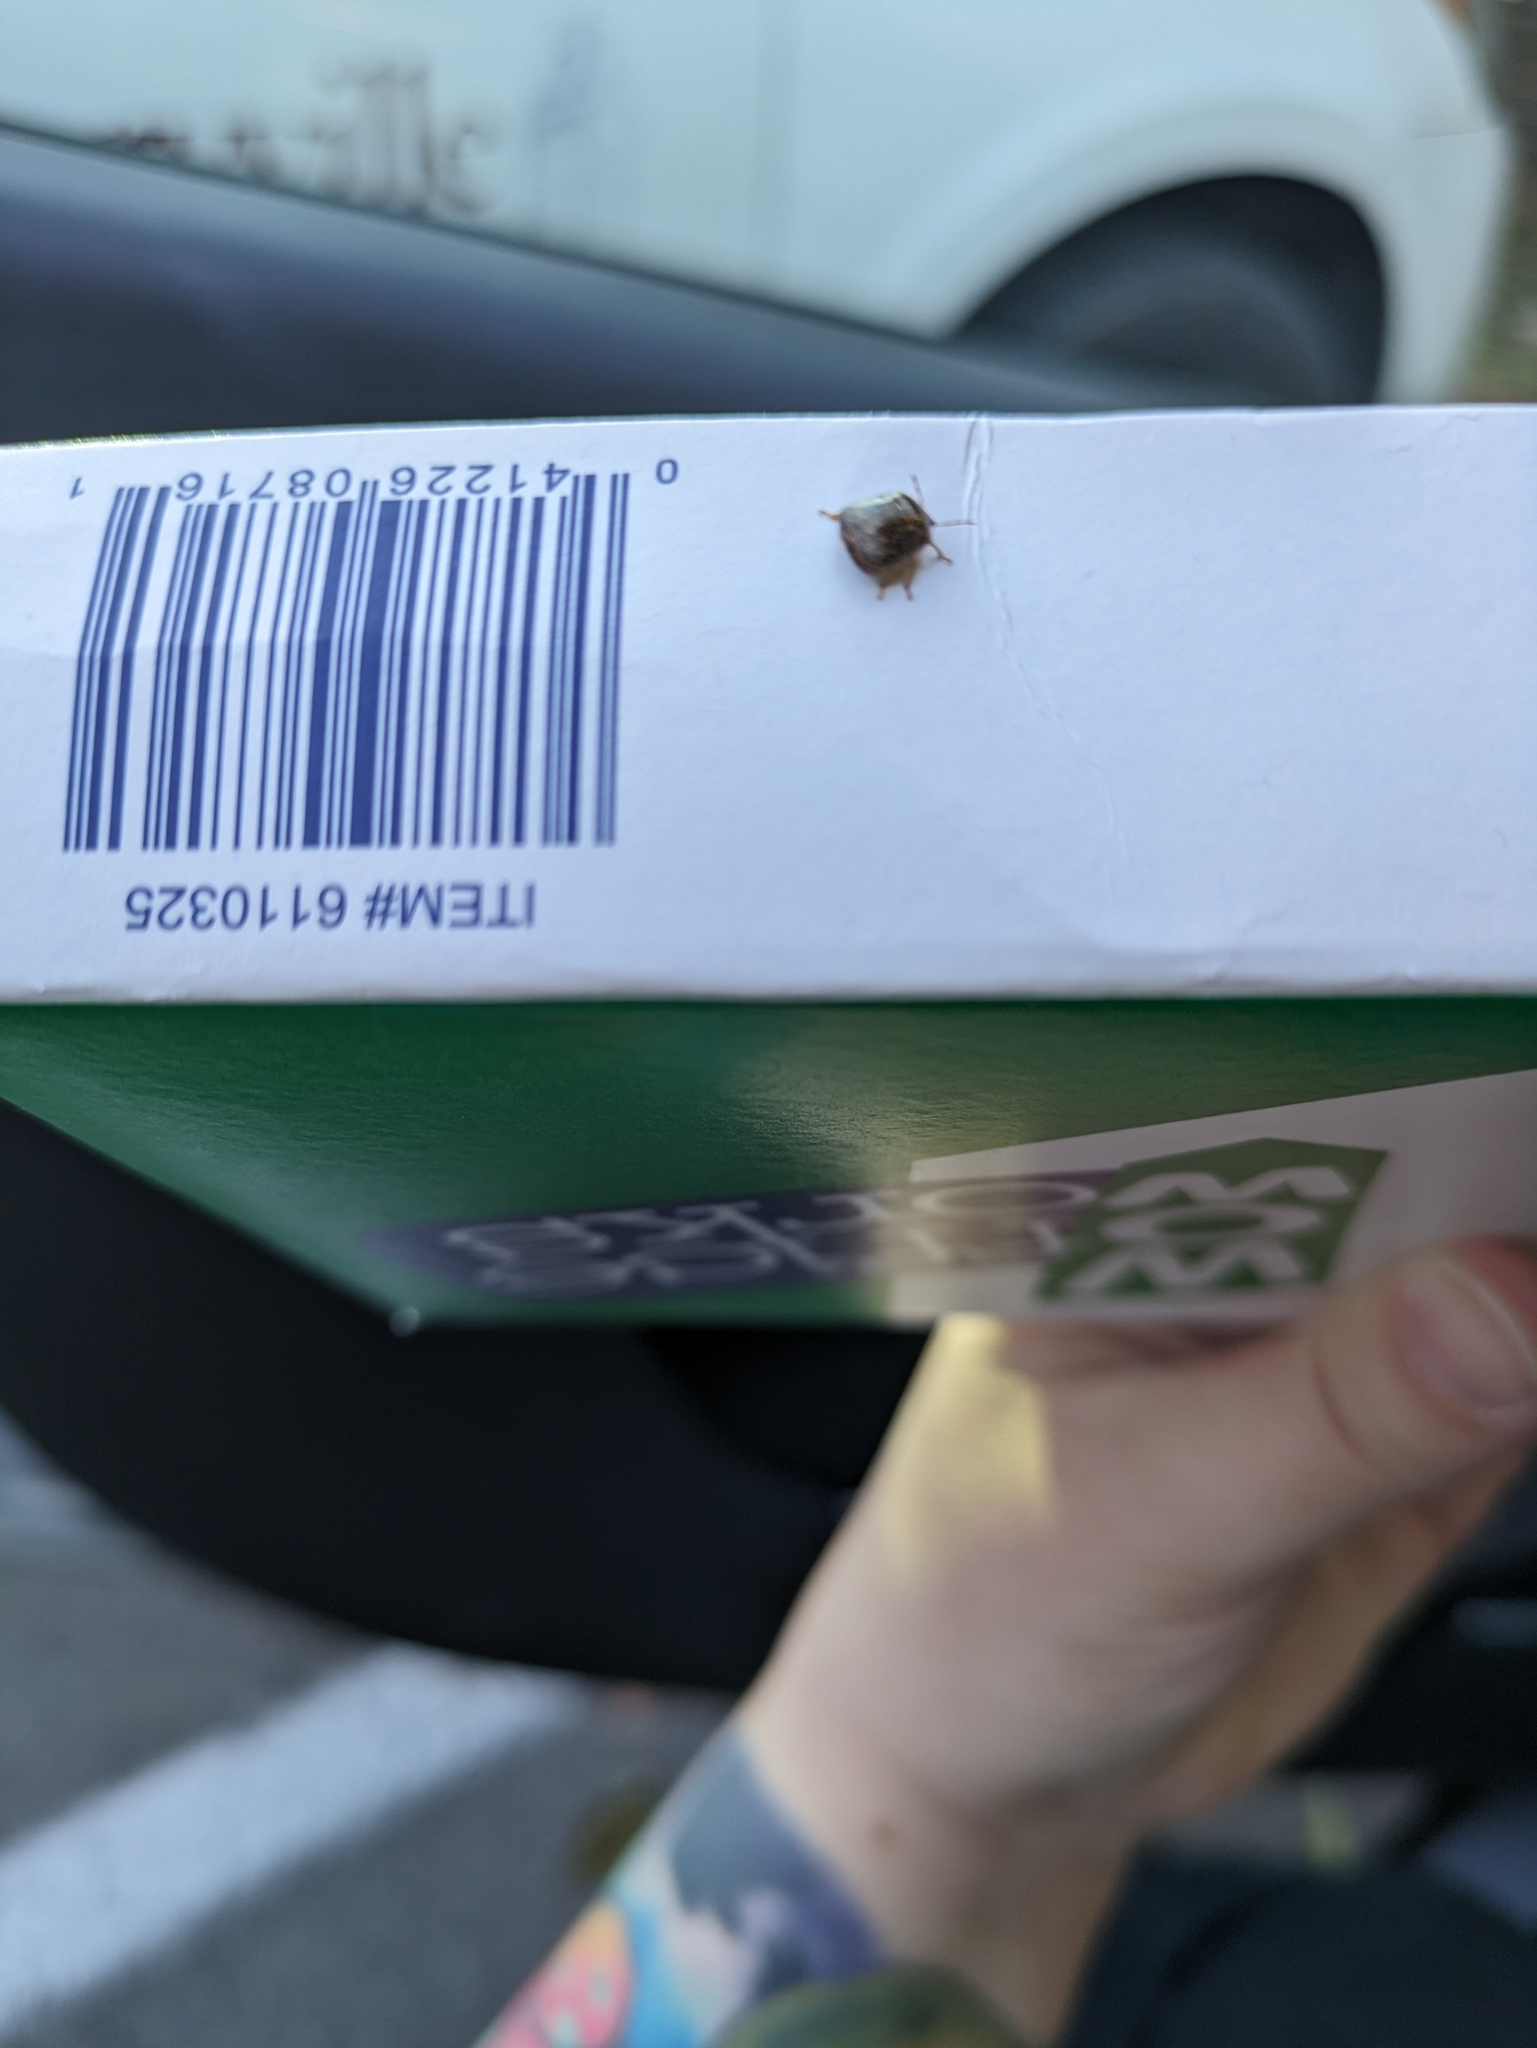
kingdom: Animalia
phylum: Arthropoda
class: Insecta
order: Hemiptera
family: Plataspidae
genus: Megacopta
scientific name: Megacopta cribraria
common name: Bean plataspid
